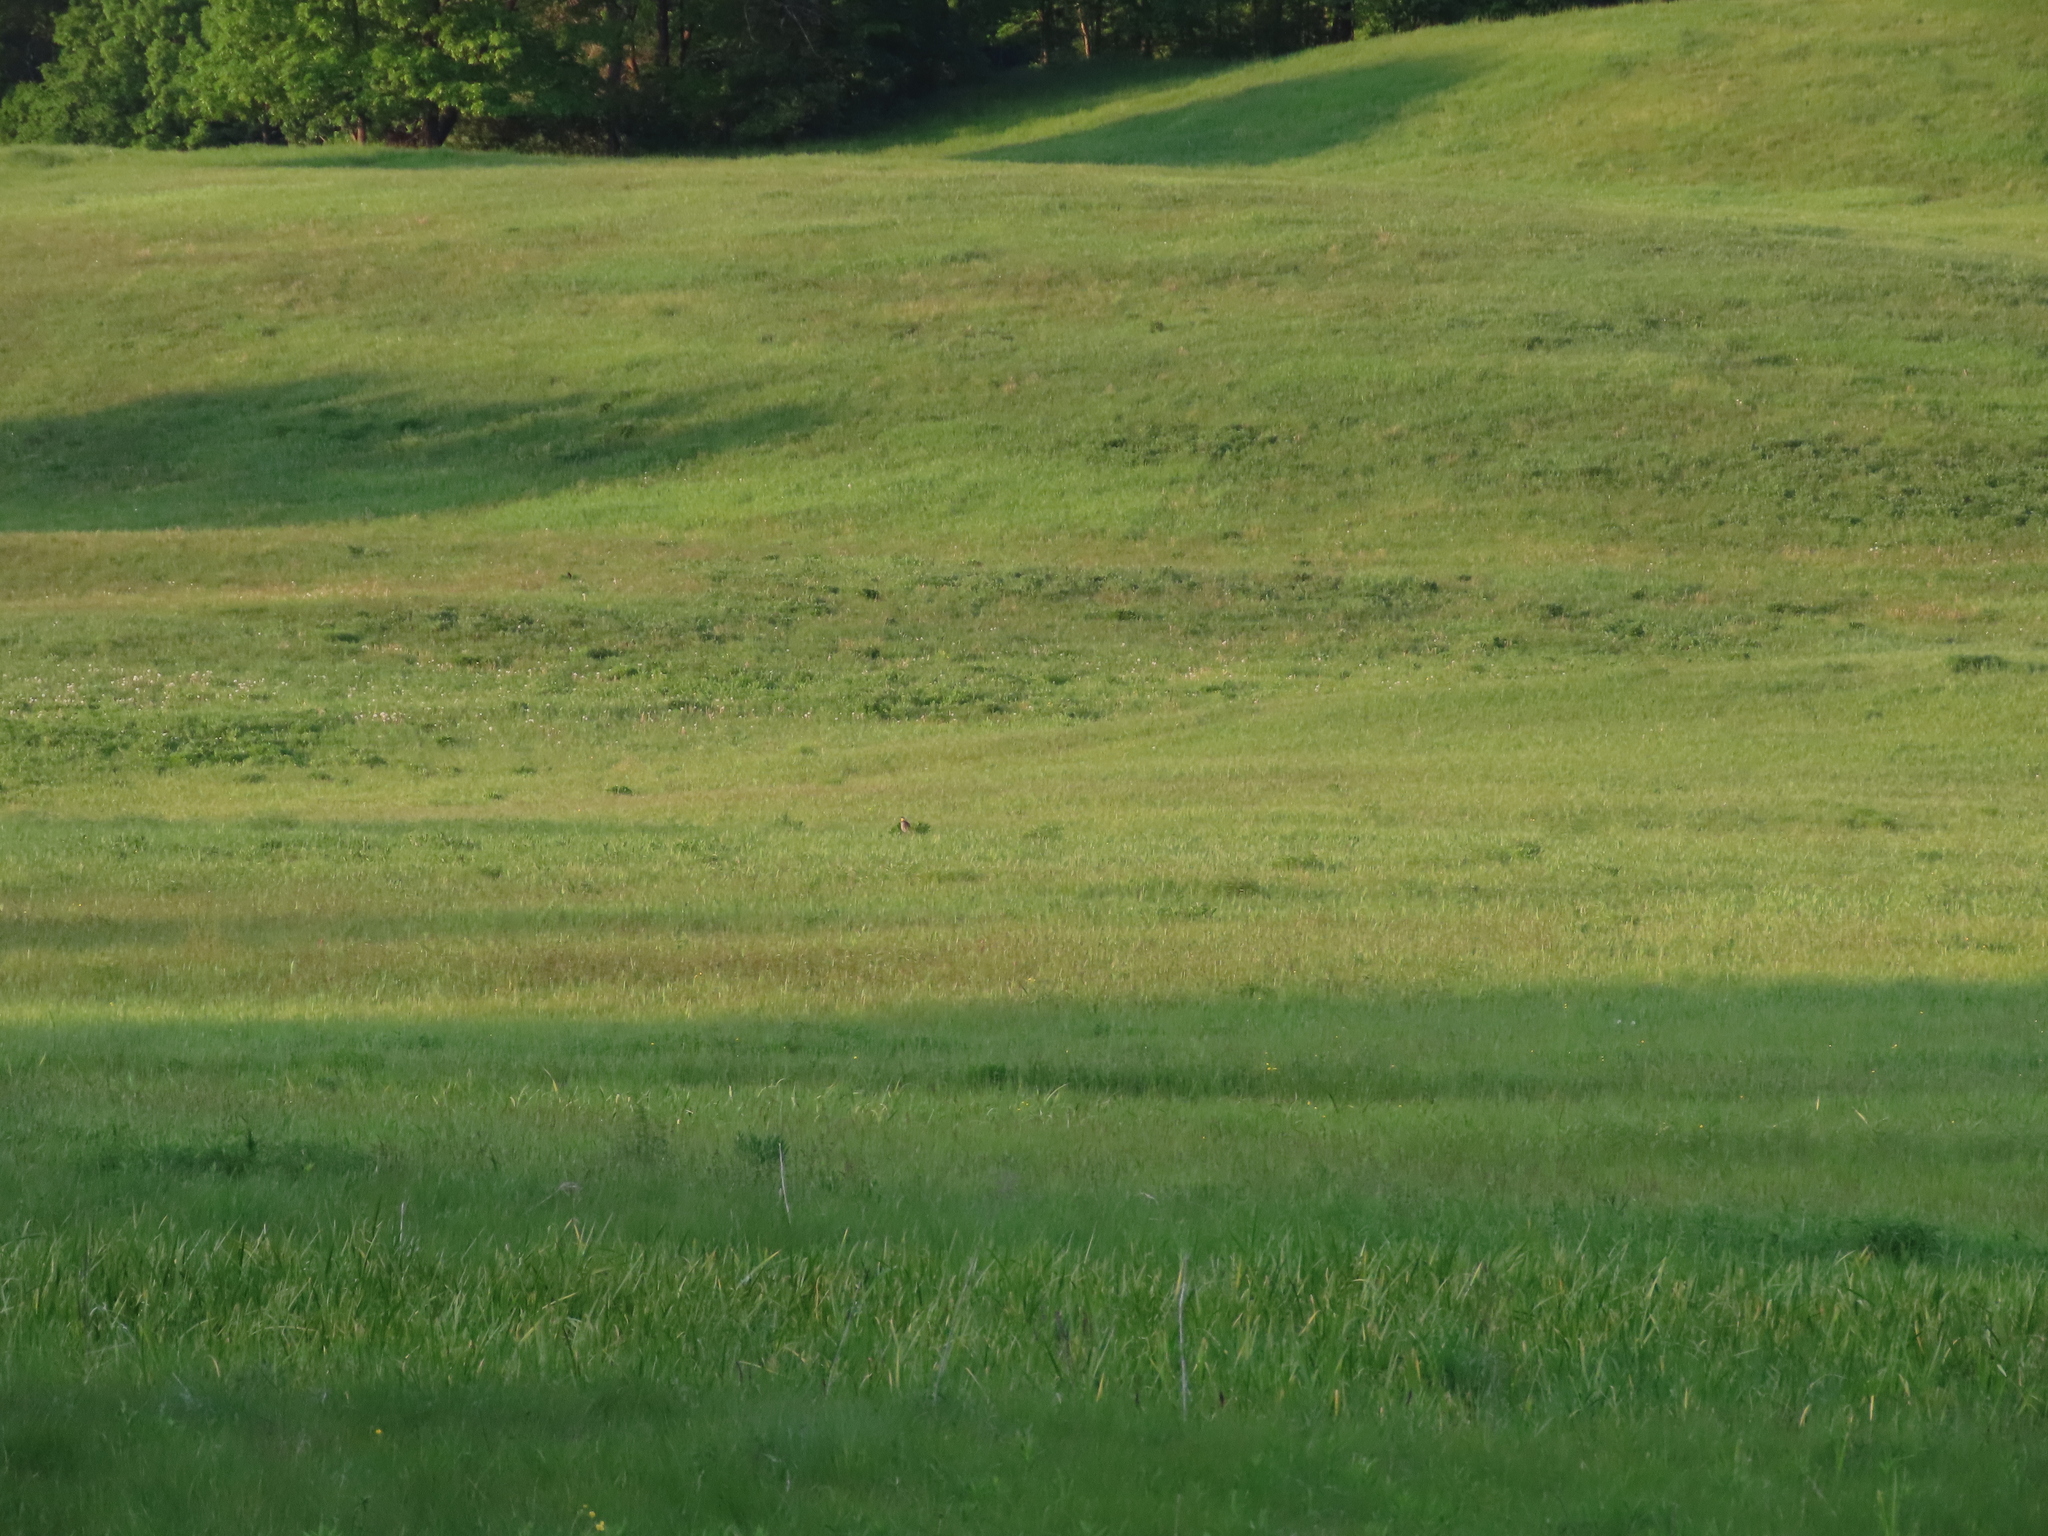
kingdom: Animalia
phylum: Chordata
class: Aves
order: Passeriformes
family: Icteridae
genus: Sturnella
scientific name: Sturnella magna
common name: Eastern meadowlark
